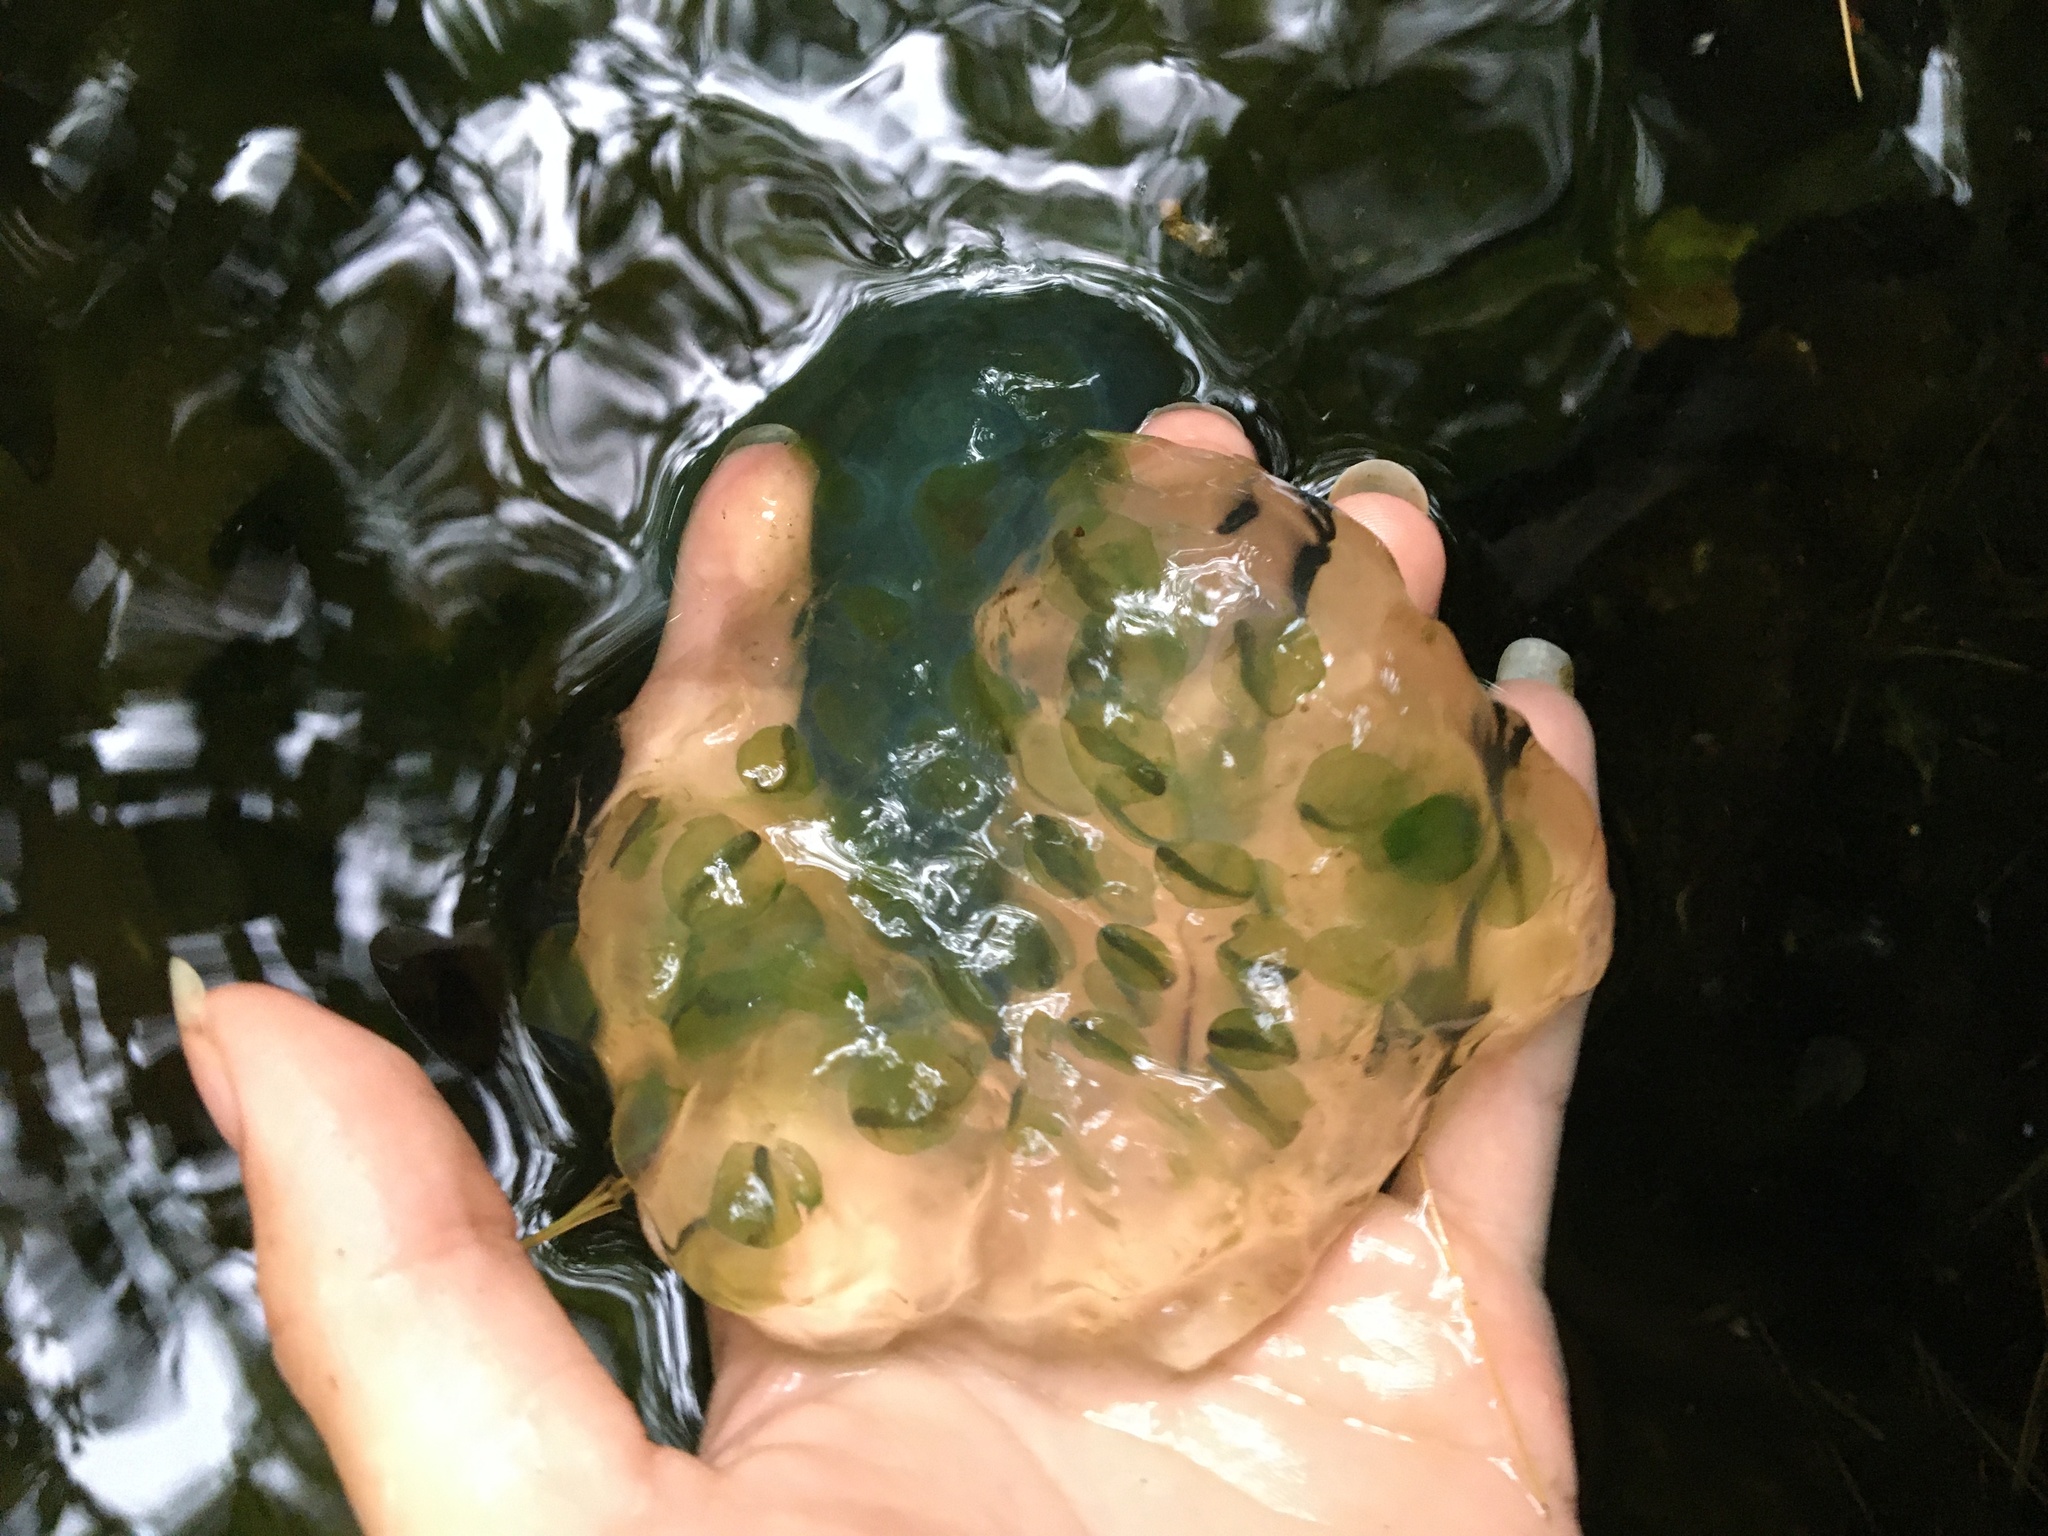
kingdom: Plantae
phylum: Chlorophyta
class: Chlorophyceae
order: Chlamydomonadales
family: Chlorococcaceae
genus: Oophila
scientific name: Oophila amblystomatis
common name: Salamander algae
